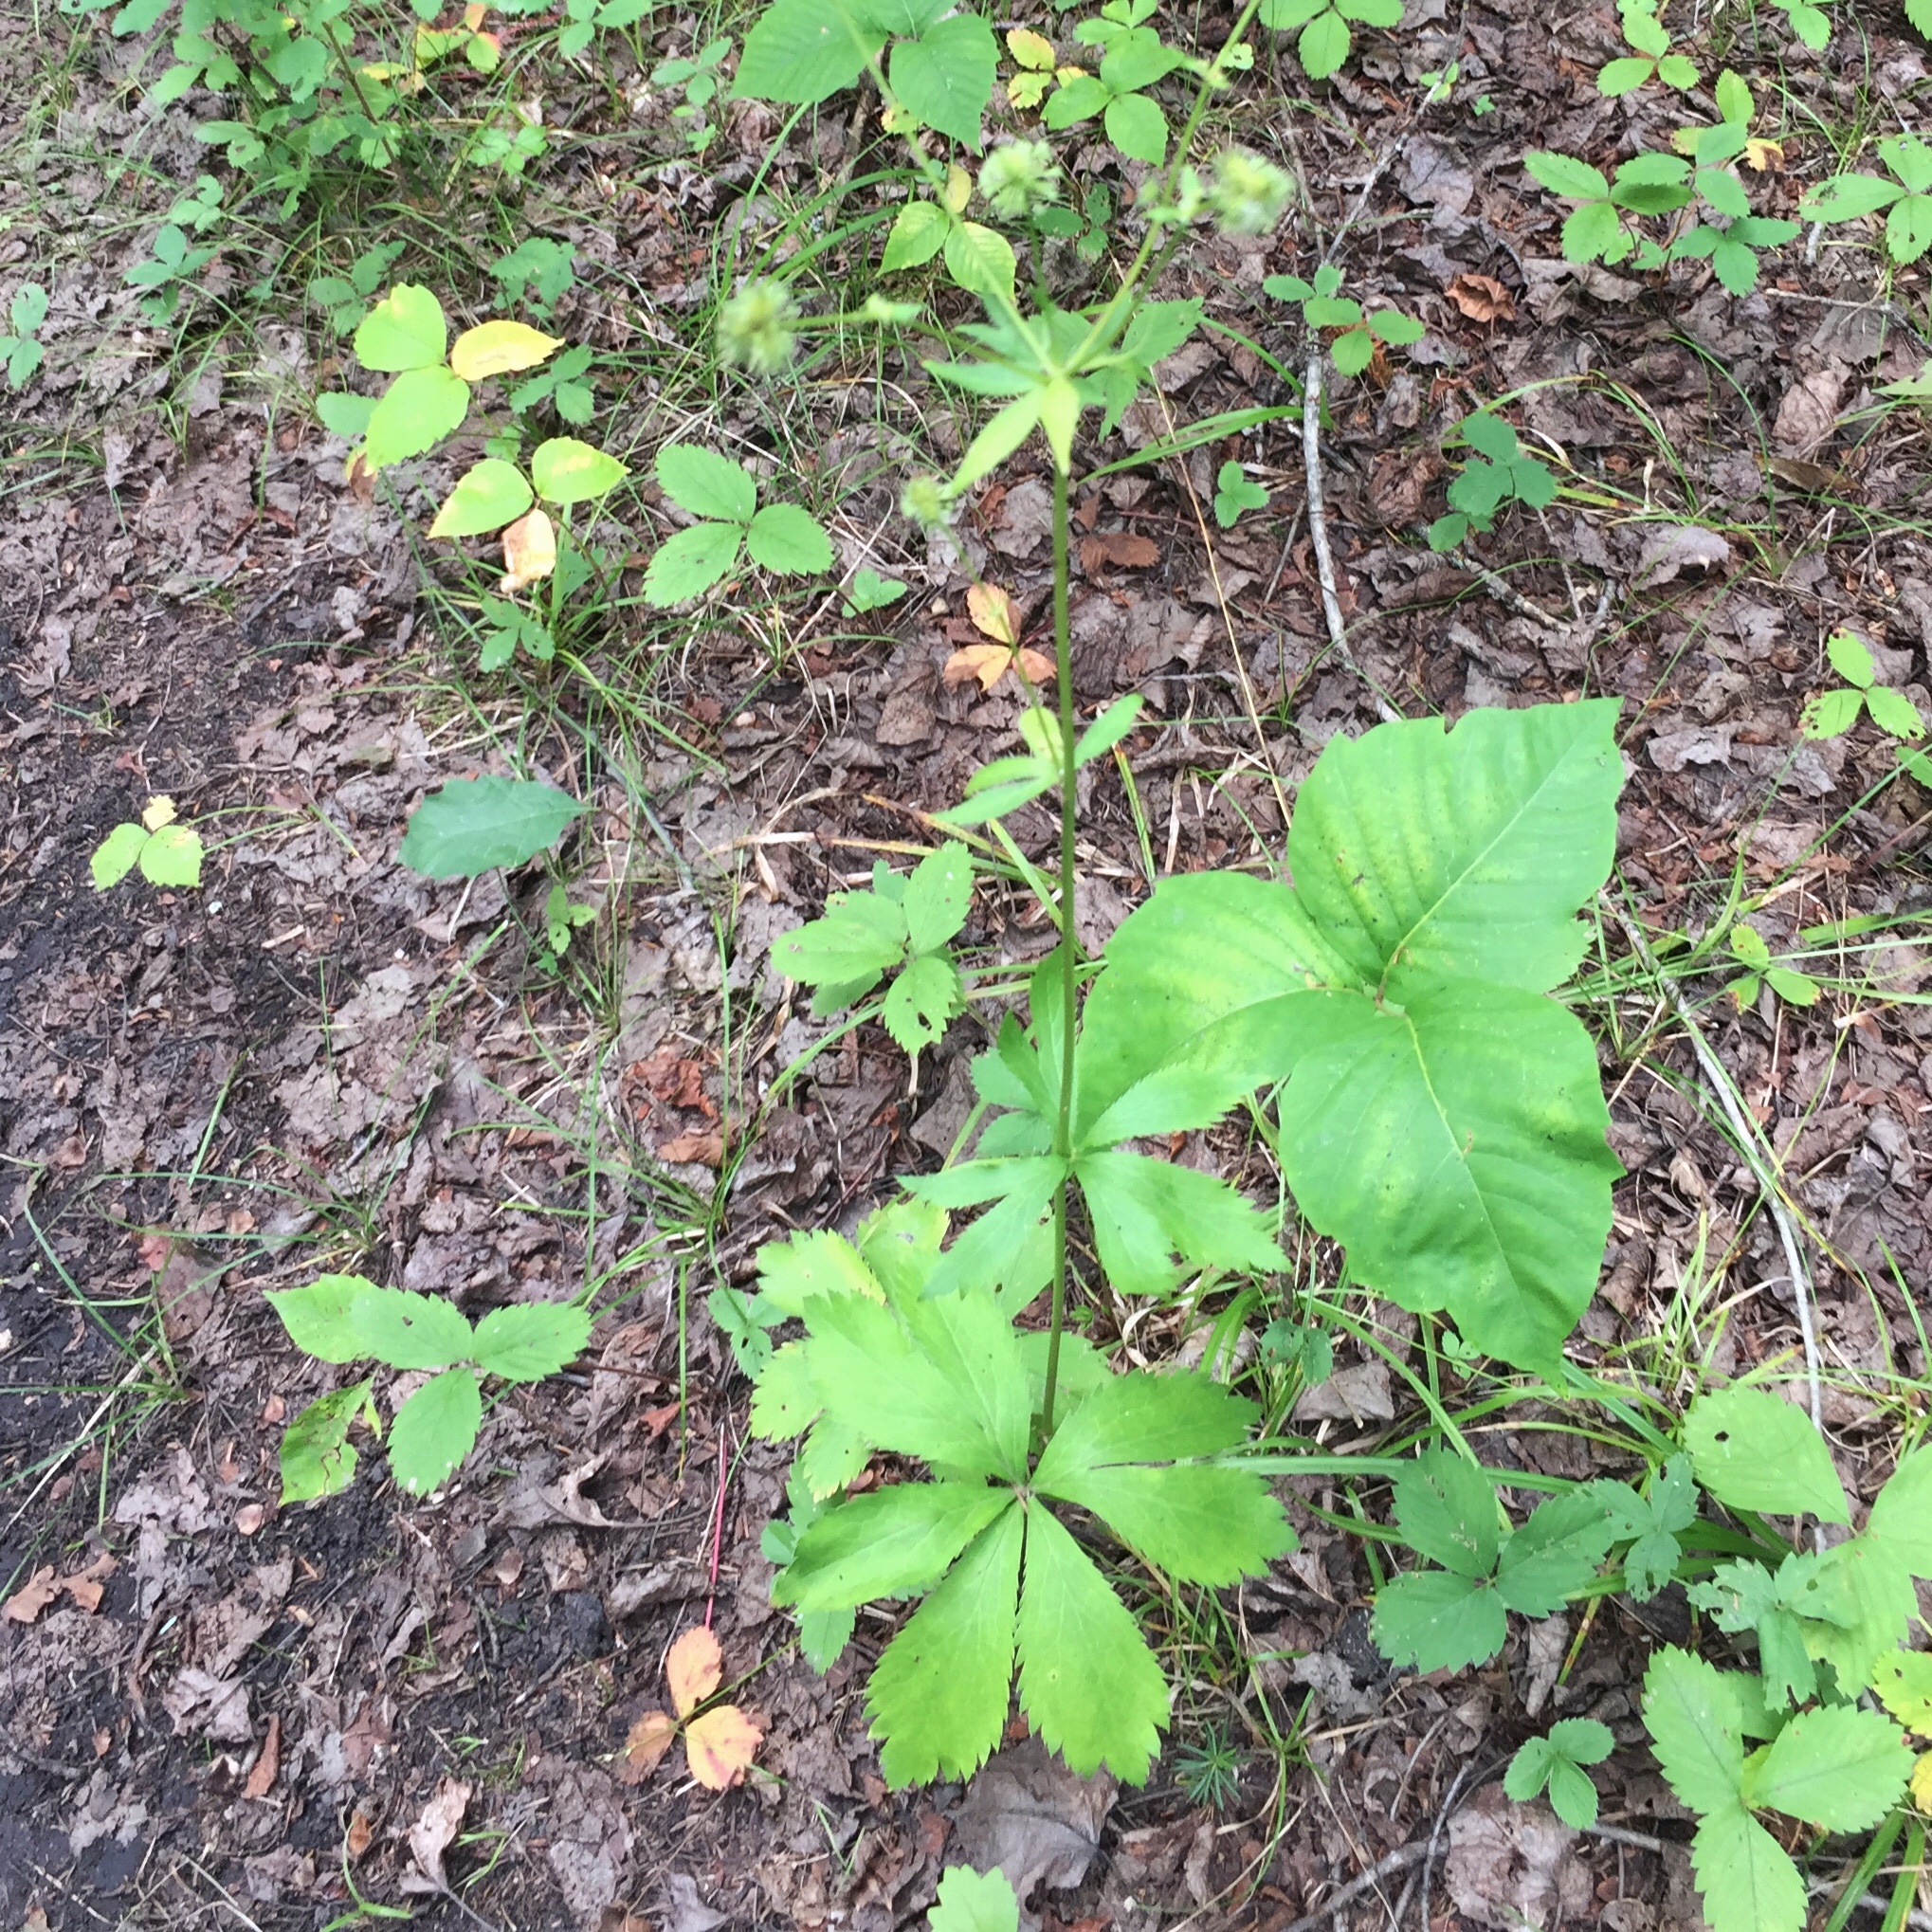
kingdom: Plantae
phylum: Tracheophyta
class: Magnoliopsida
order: Apiales
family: Apiaceae
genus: Sanicula
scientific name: Sanicula marilandica
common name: Black snakeroot
